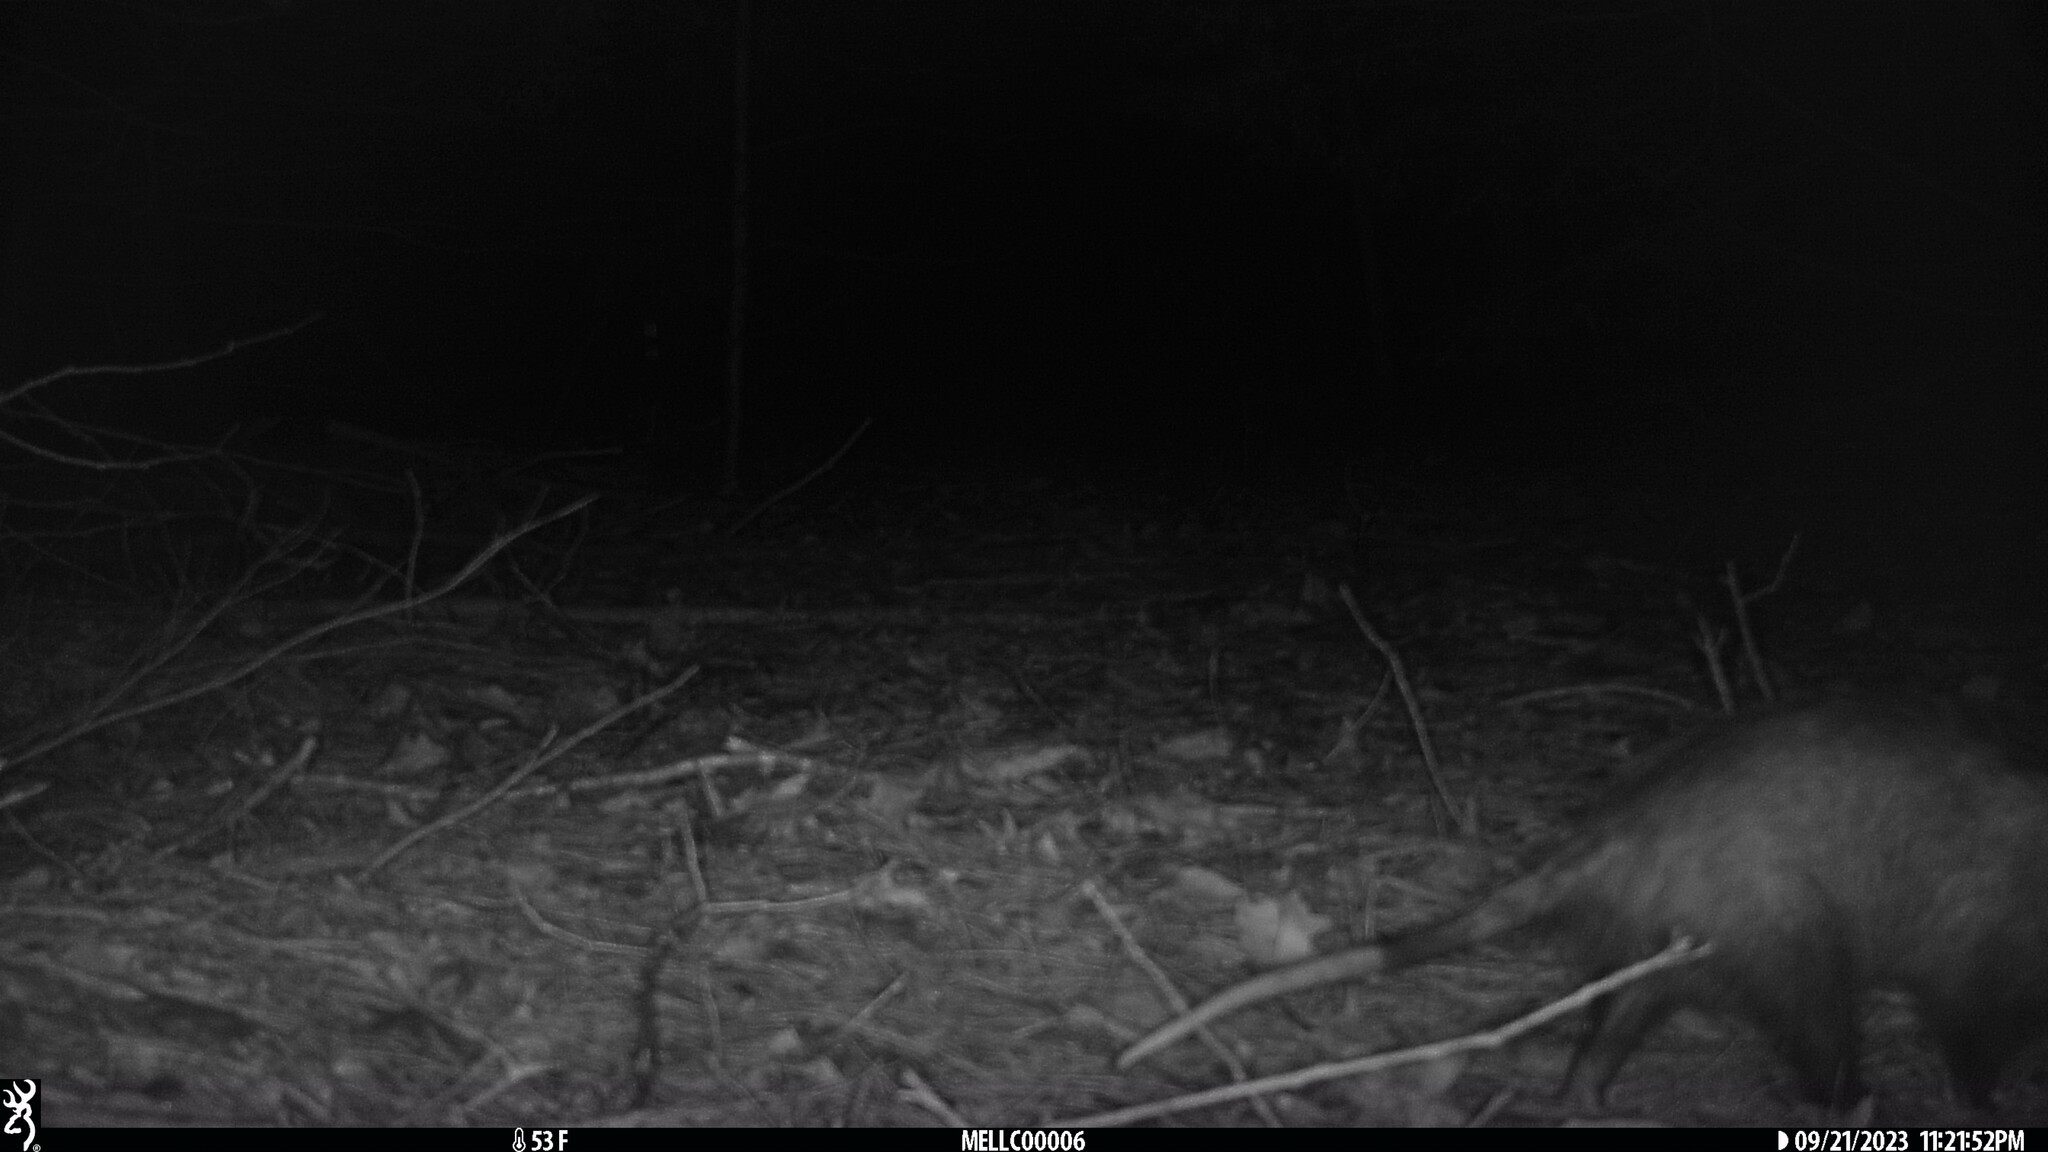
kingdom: Animalia
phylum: Chordata
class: Mammalia
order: Didelphimorphia
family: Didelphidae
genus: Didelphis
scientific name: Didelphis virginiana
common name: Virginia opossum
